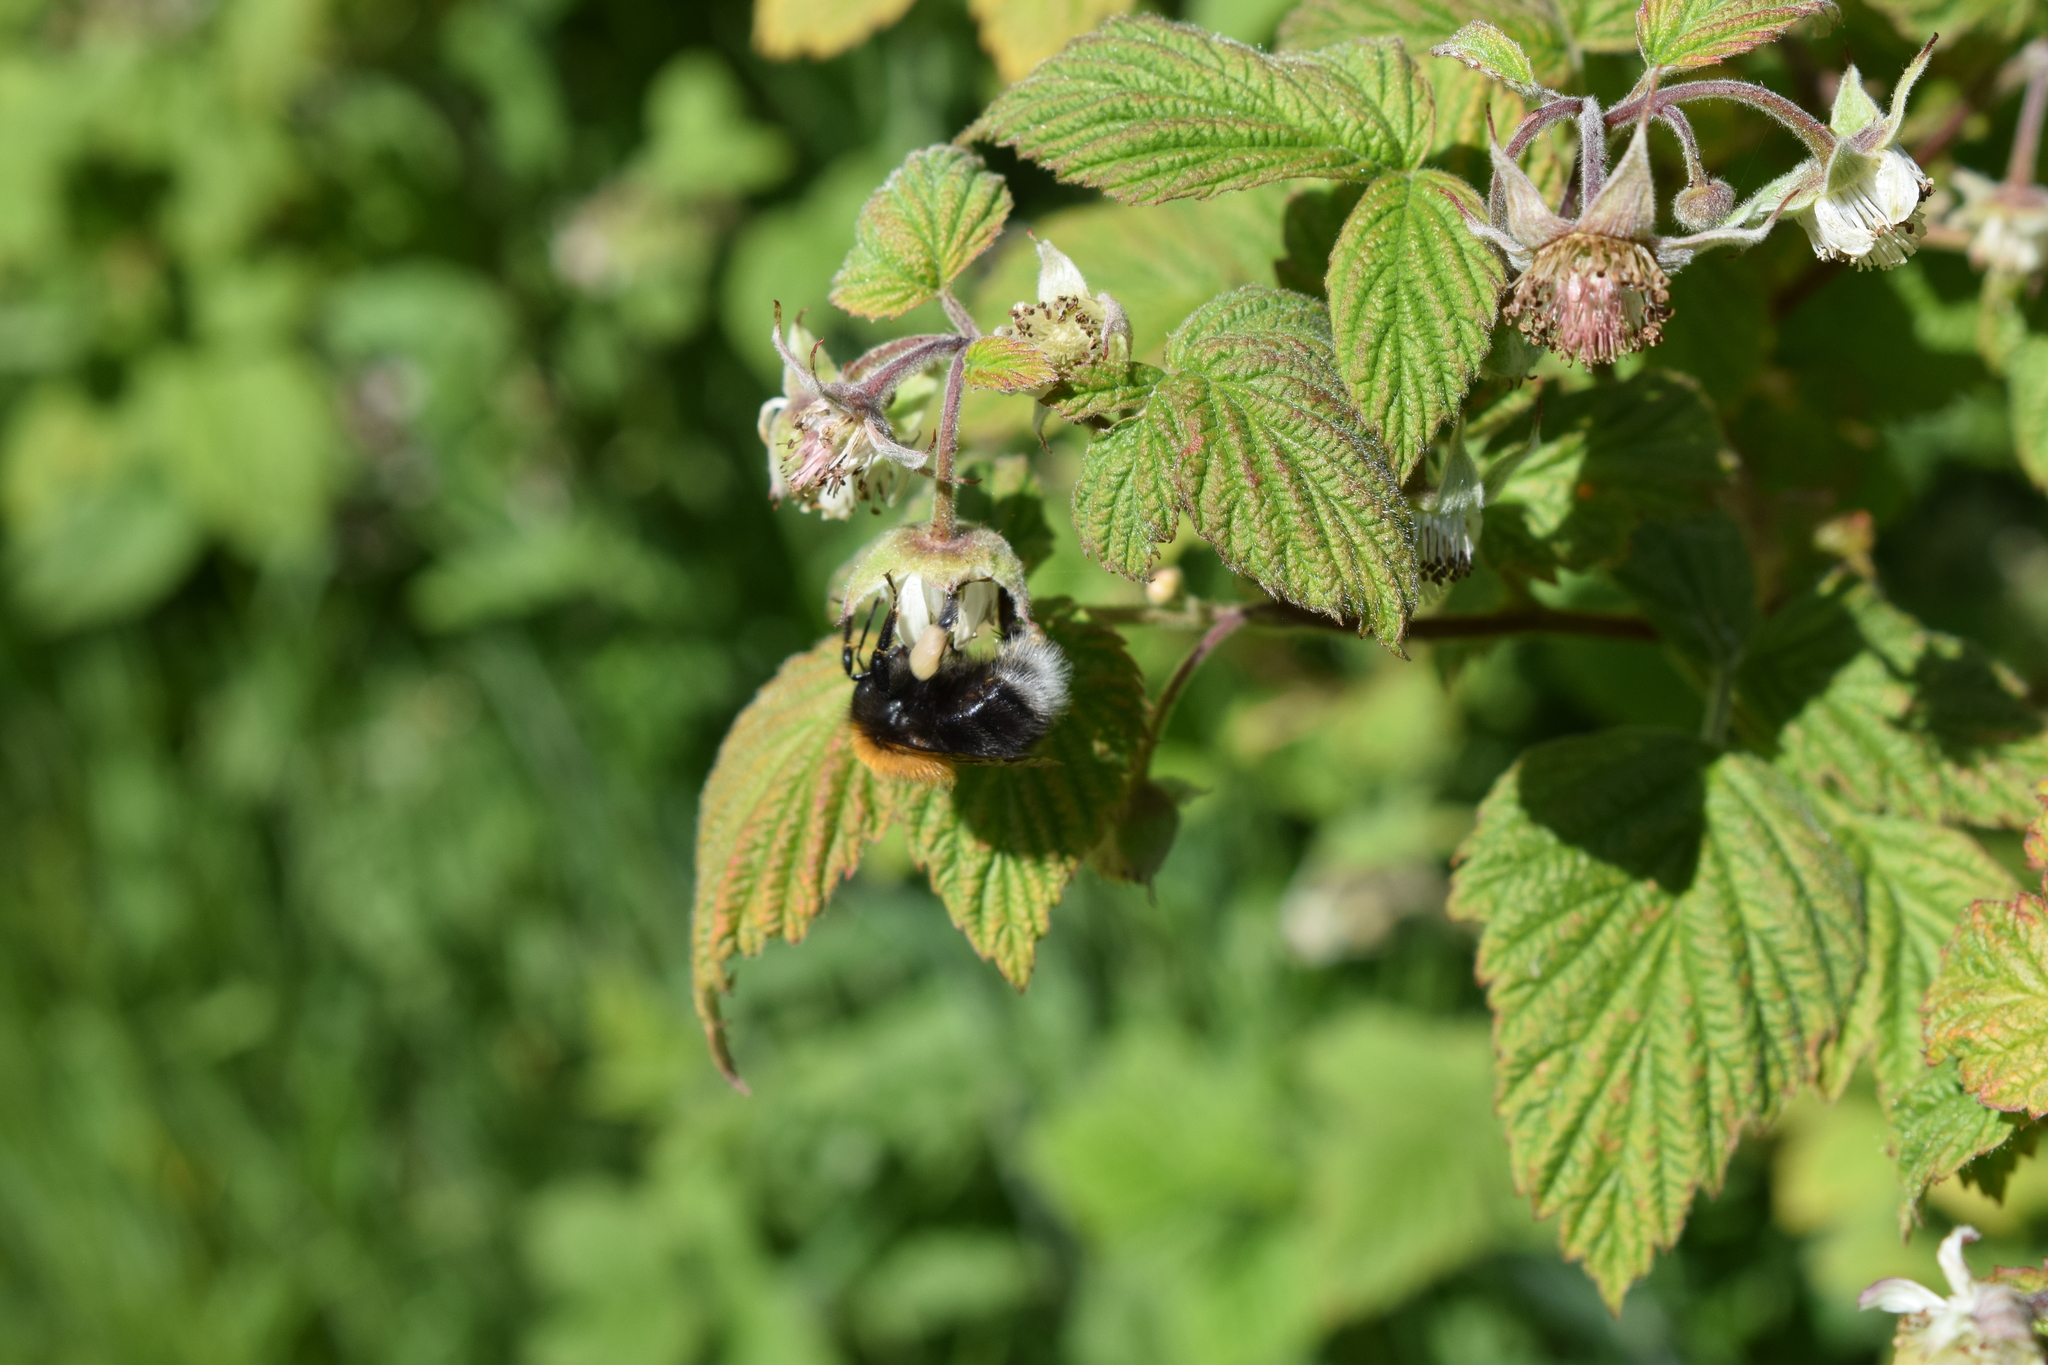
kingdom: Animalia
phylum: Arthropoda
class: Insecta
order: Hymenoptera
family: Apidae
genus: Bombus
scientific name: Bombus hypnorum
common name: New garden bumblebee
